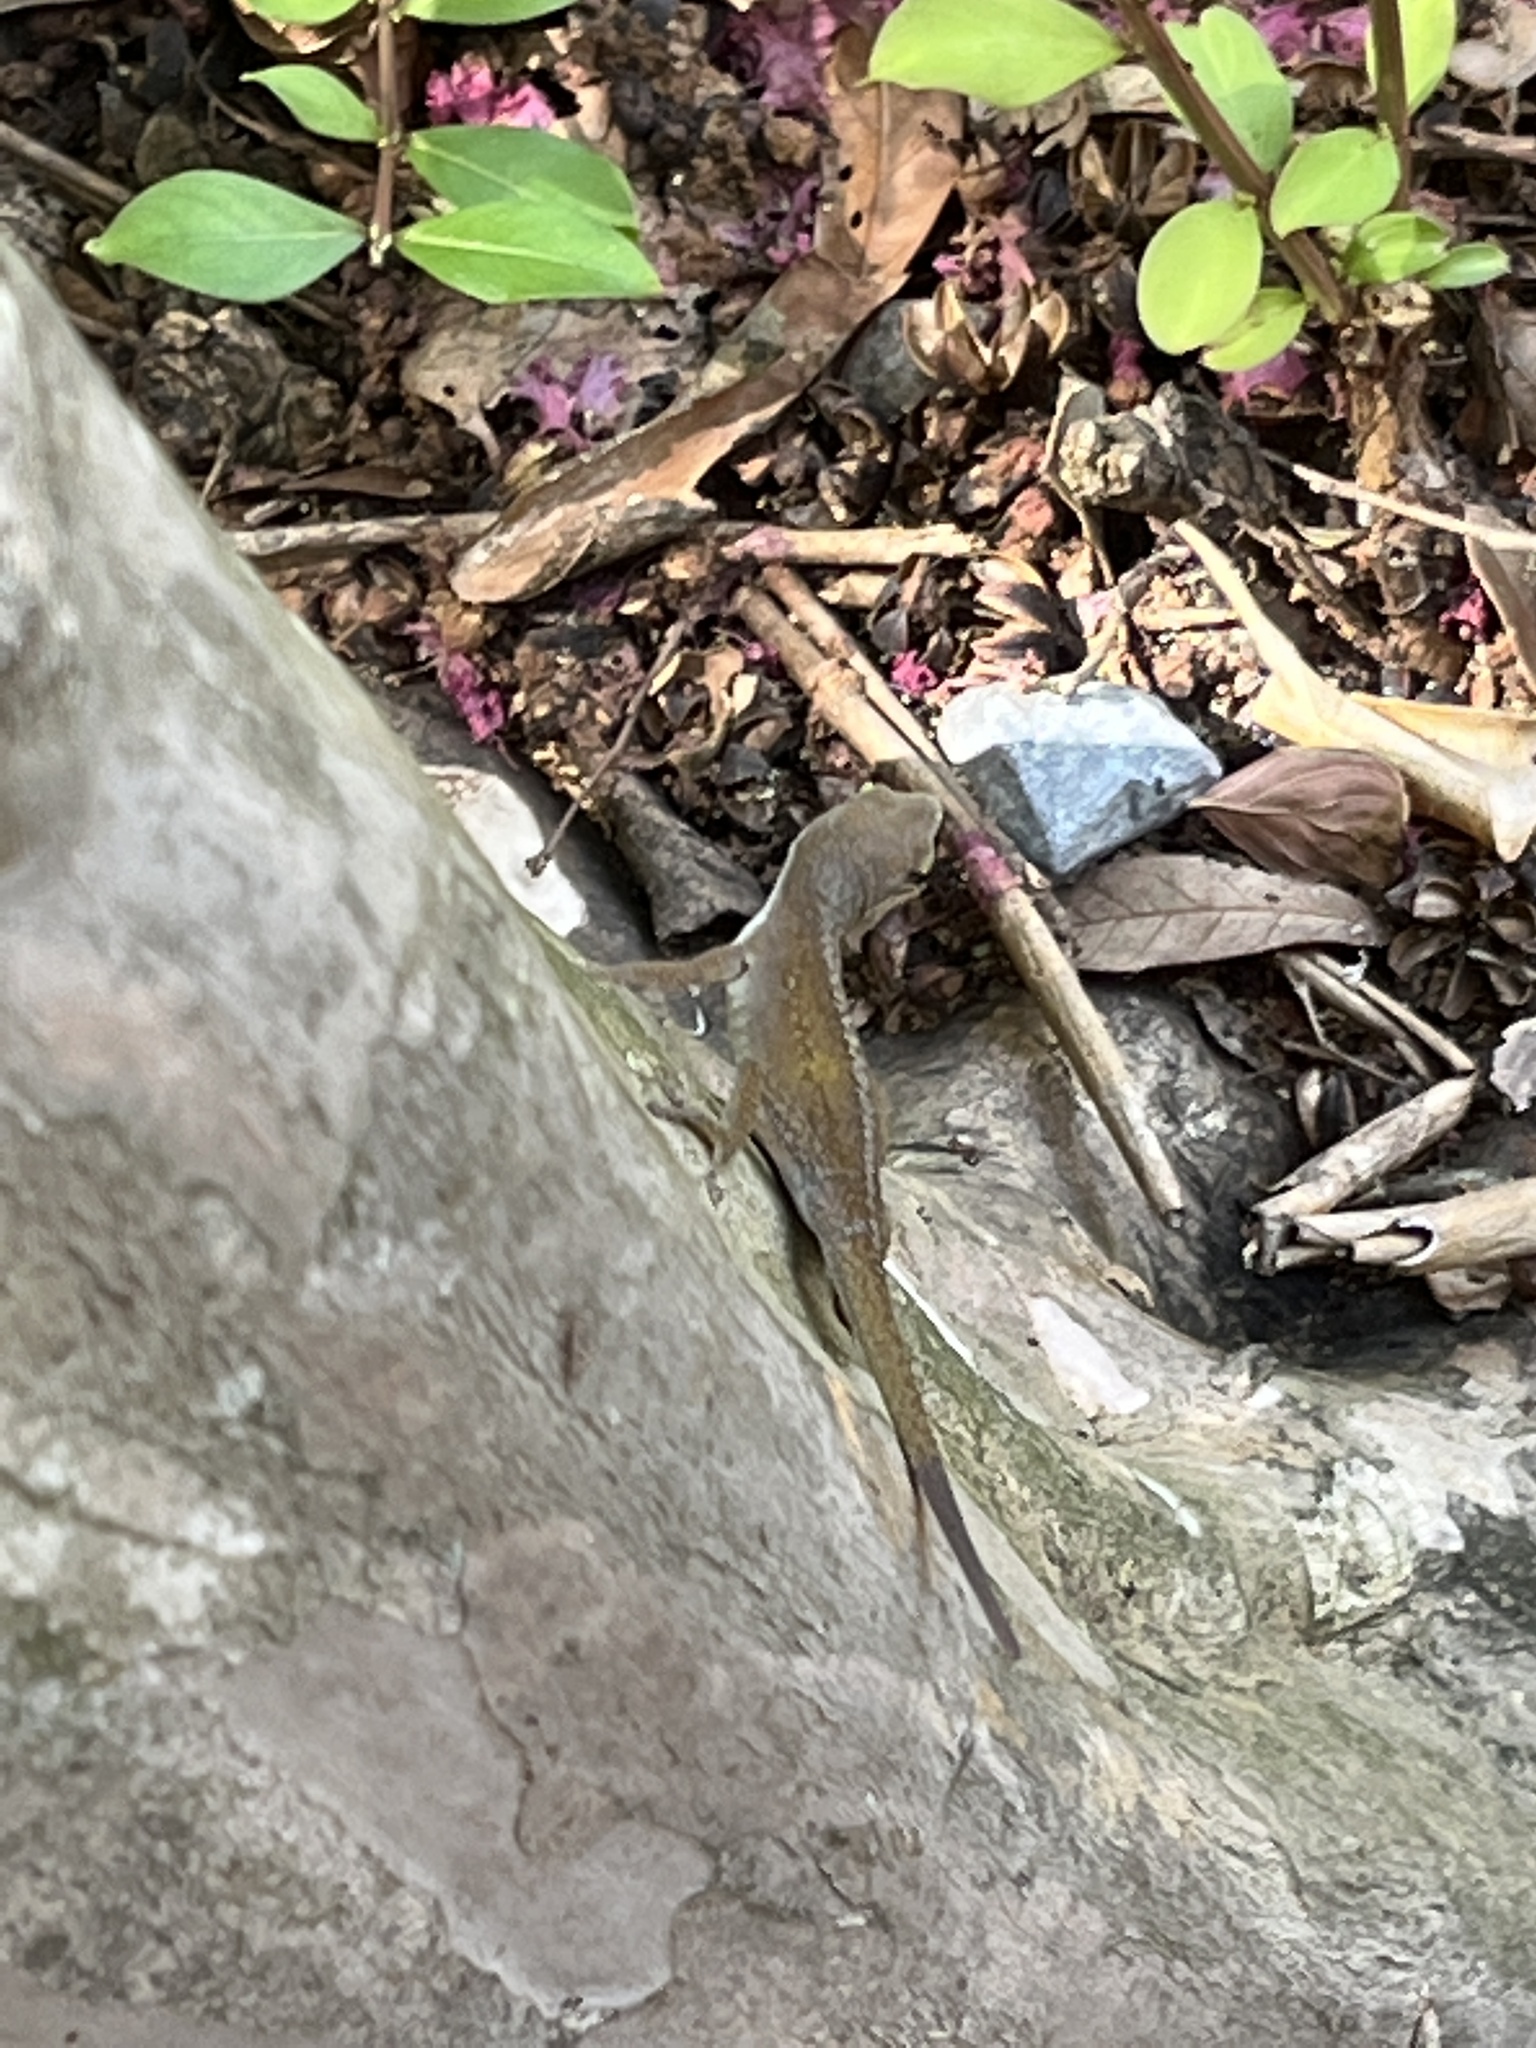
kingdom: Animalia
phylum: Chordata
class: Squamata
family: Dactyloidae
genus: Anolis
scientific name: Anolis carolinensis
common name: Green anole
